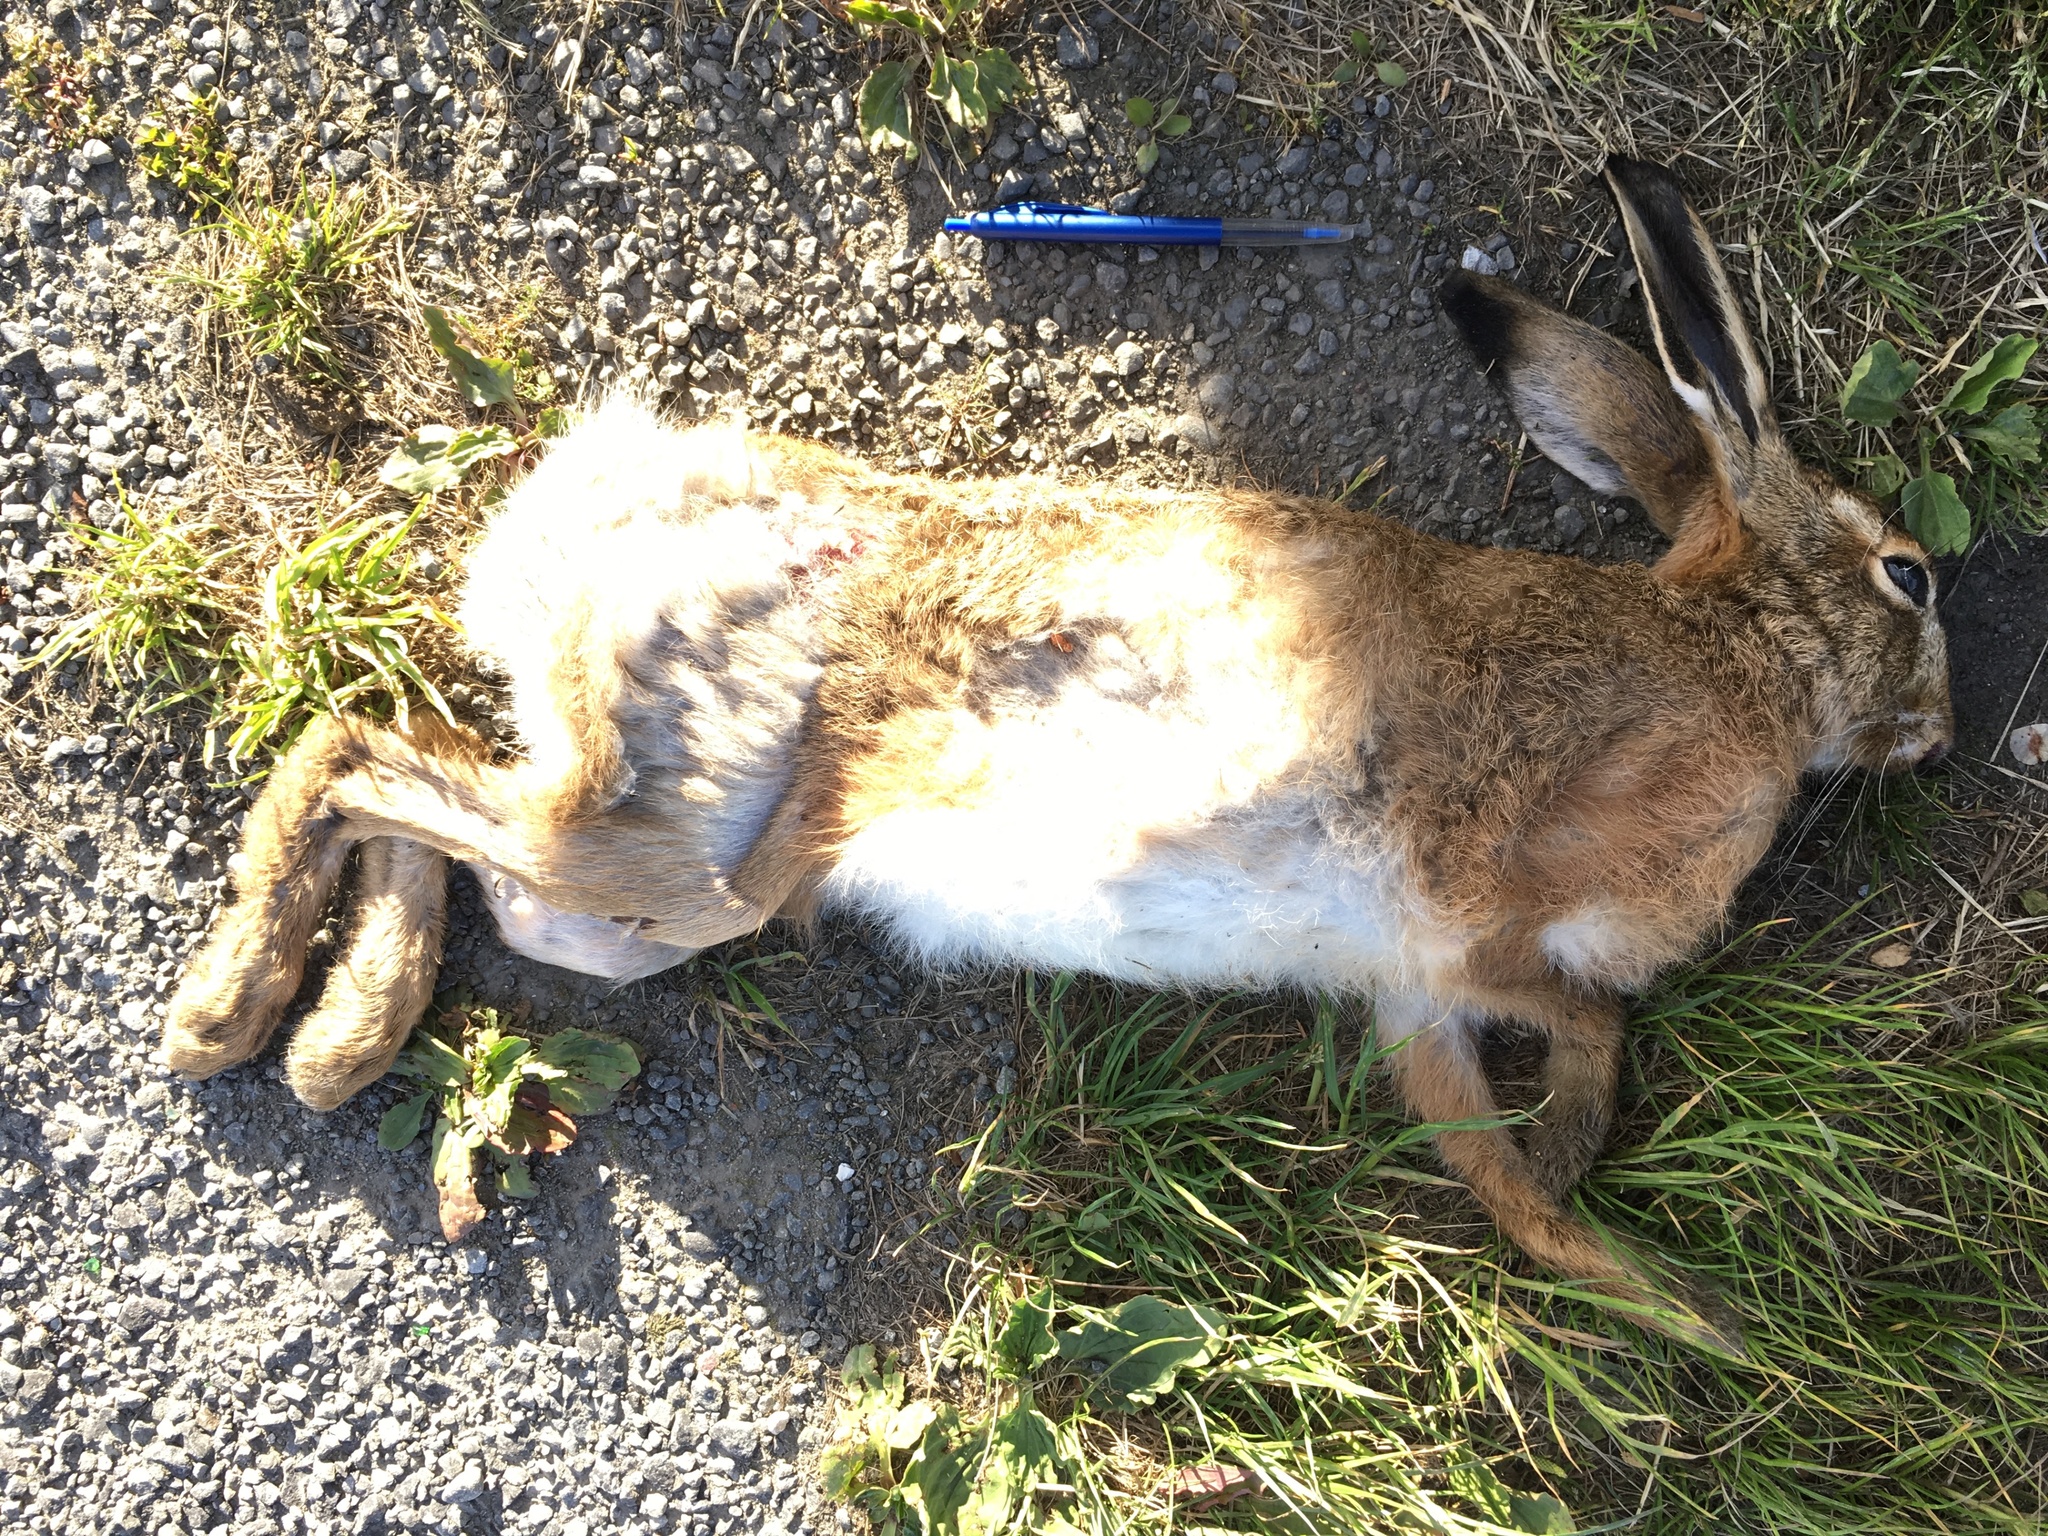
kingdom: Animalia
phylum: Chordata
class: Mammalia
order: Lagomorpha
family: Leporidae
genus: Lepus
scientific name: Lepus europaeus
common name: European hare
